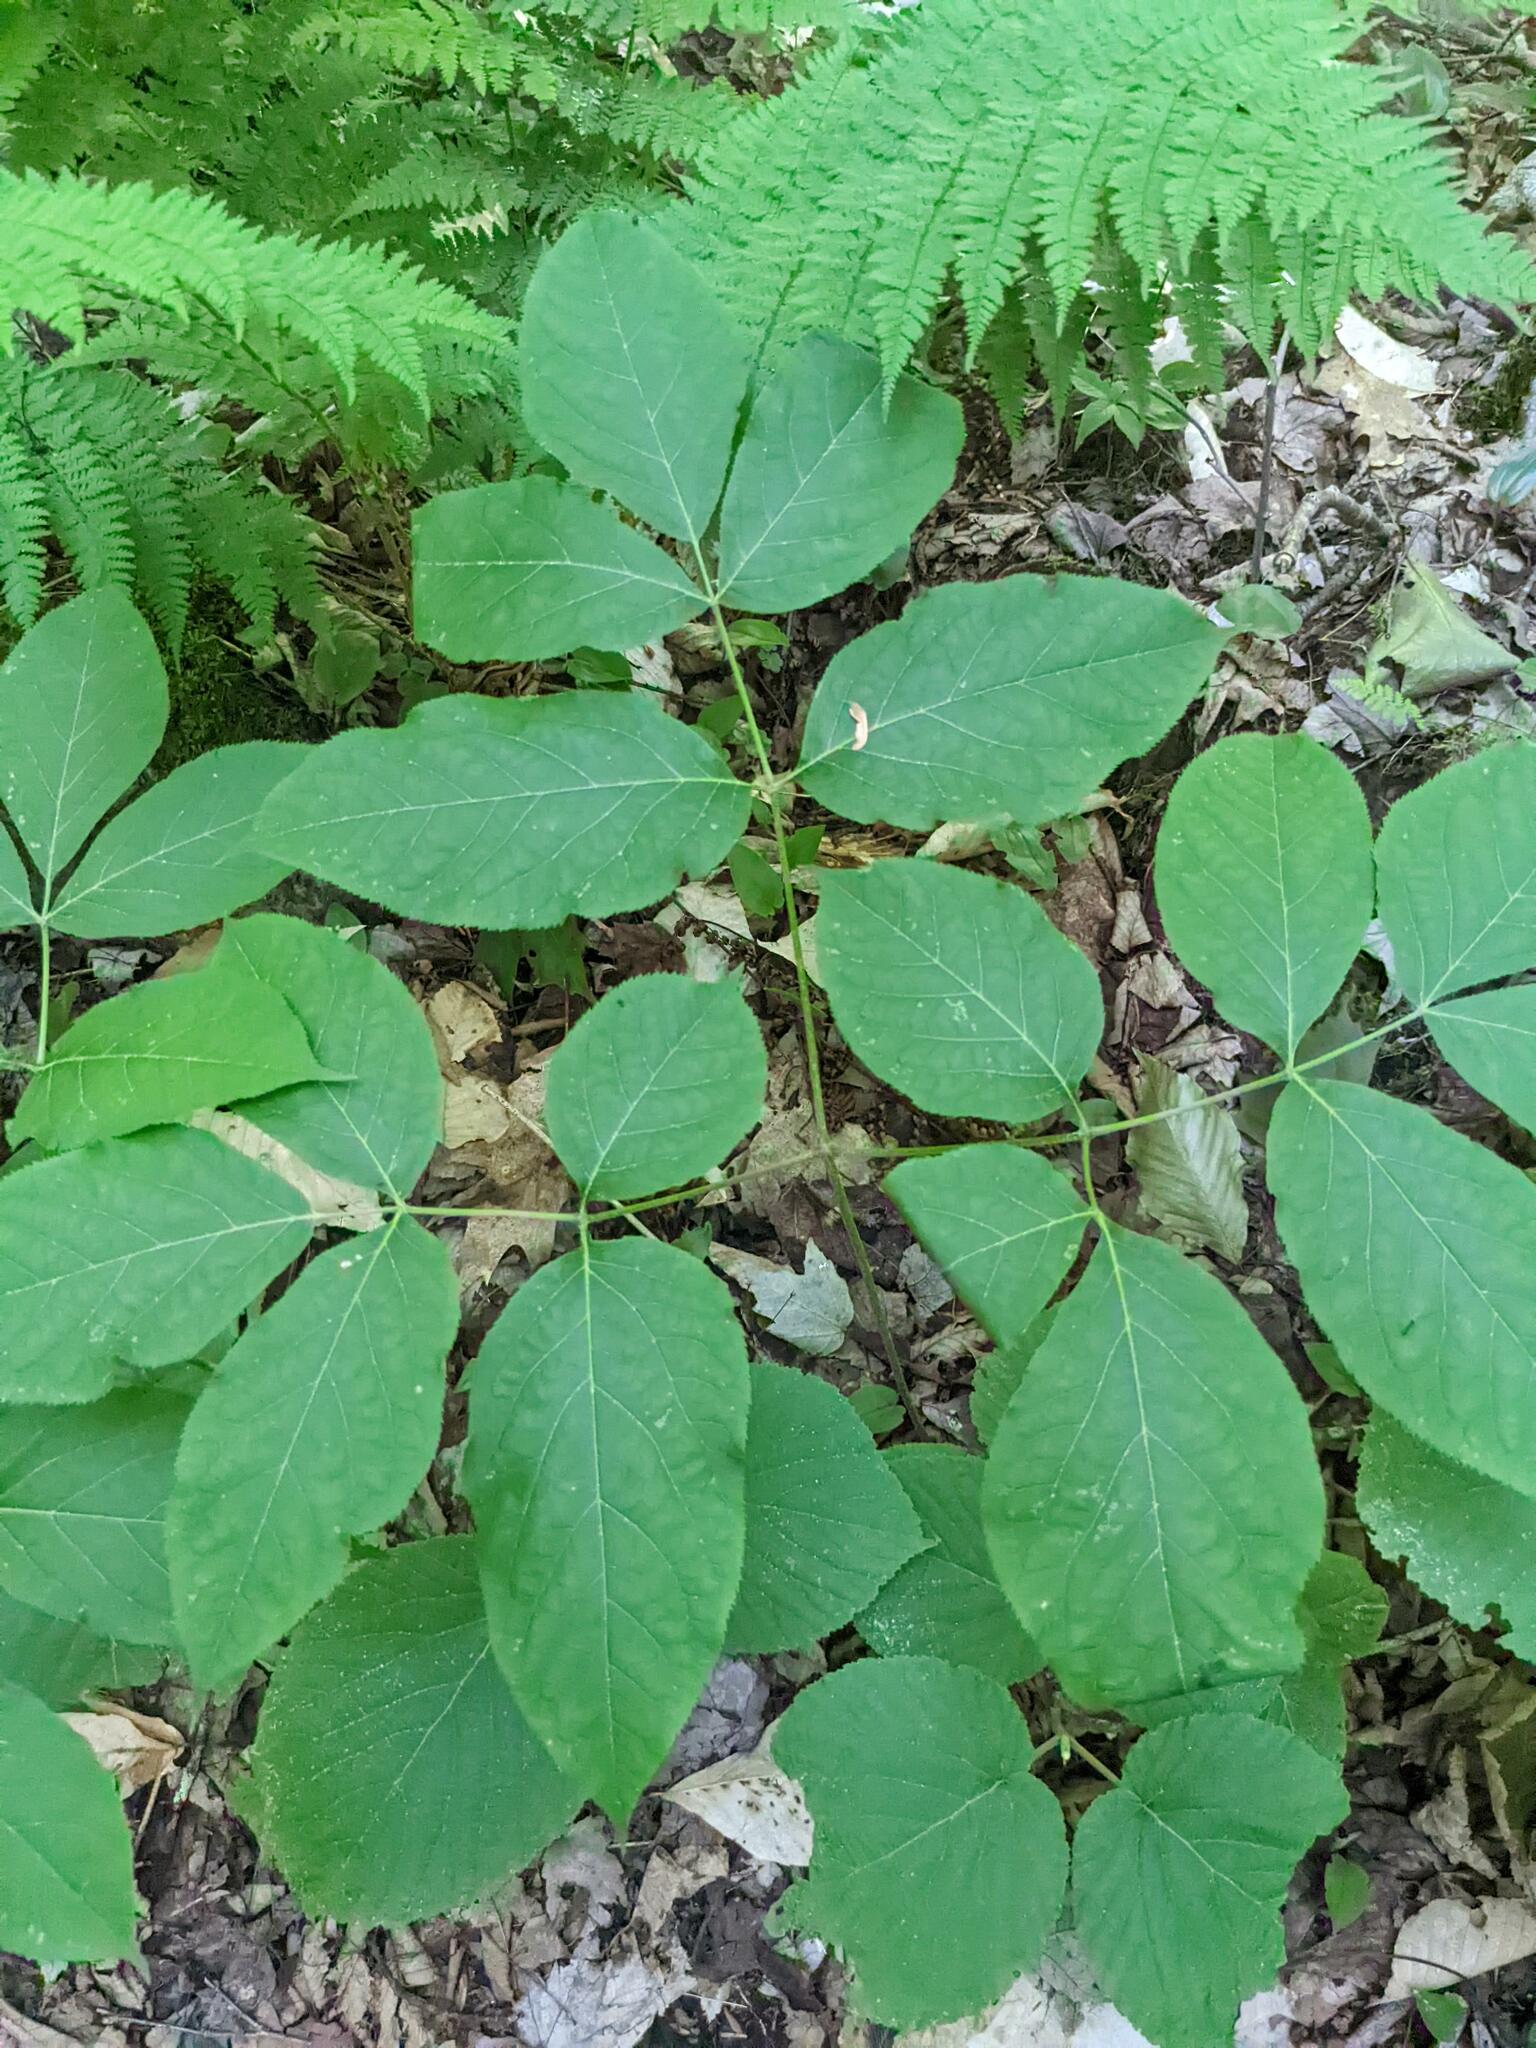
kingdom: Plantae
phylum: Tracheophyta
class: Magnoliopsida
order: Apiales
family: Araliaceae
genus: Aralia
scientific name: Aralia nudicaulis
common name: Wild sarsaparilla
